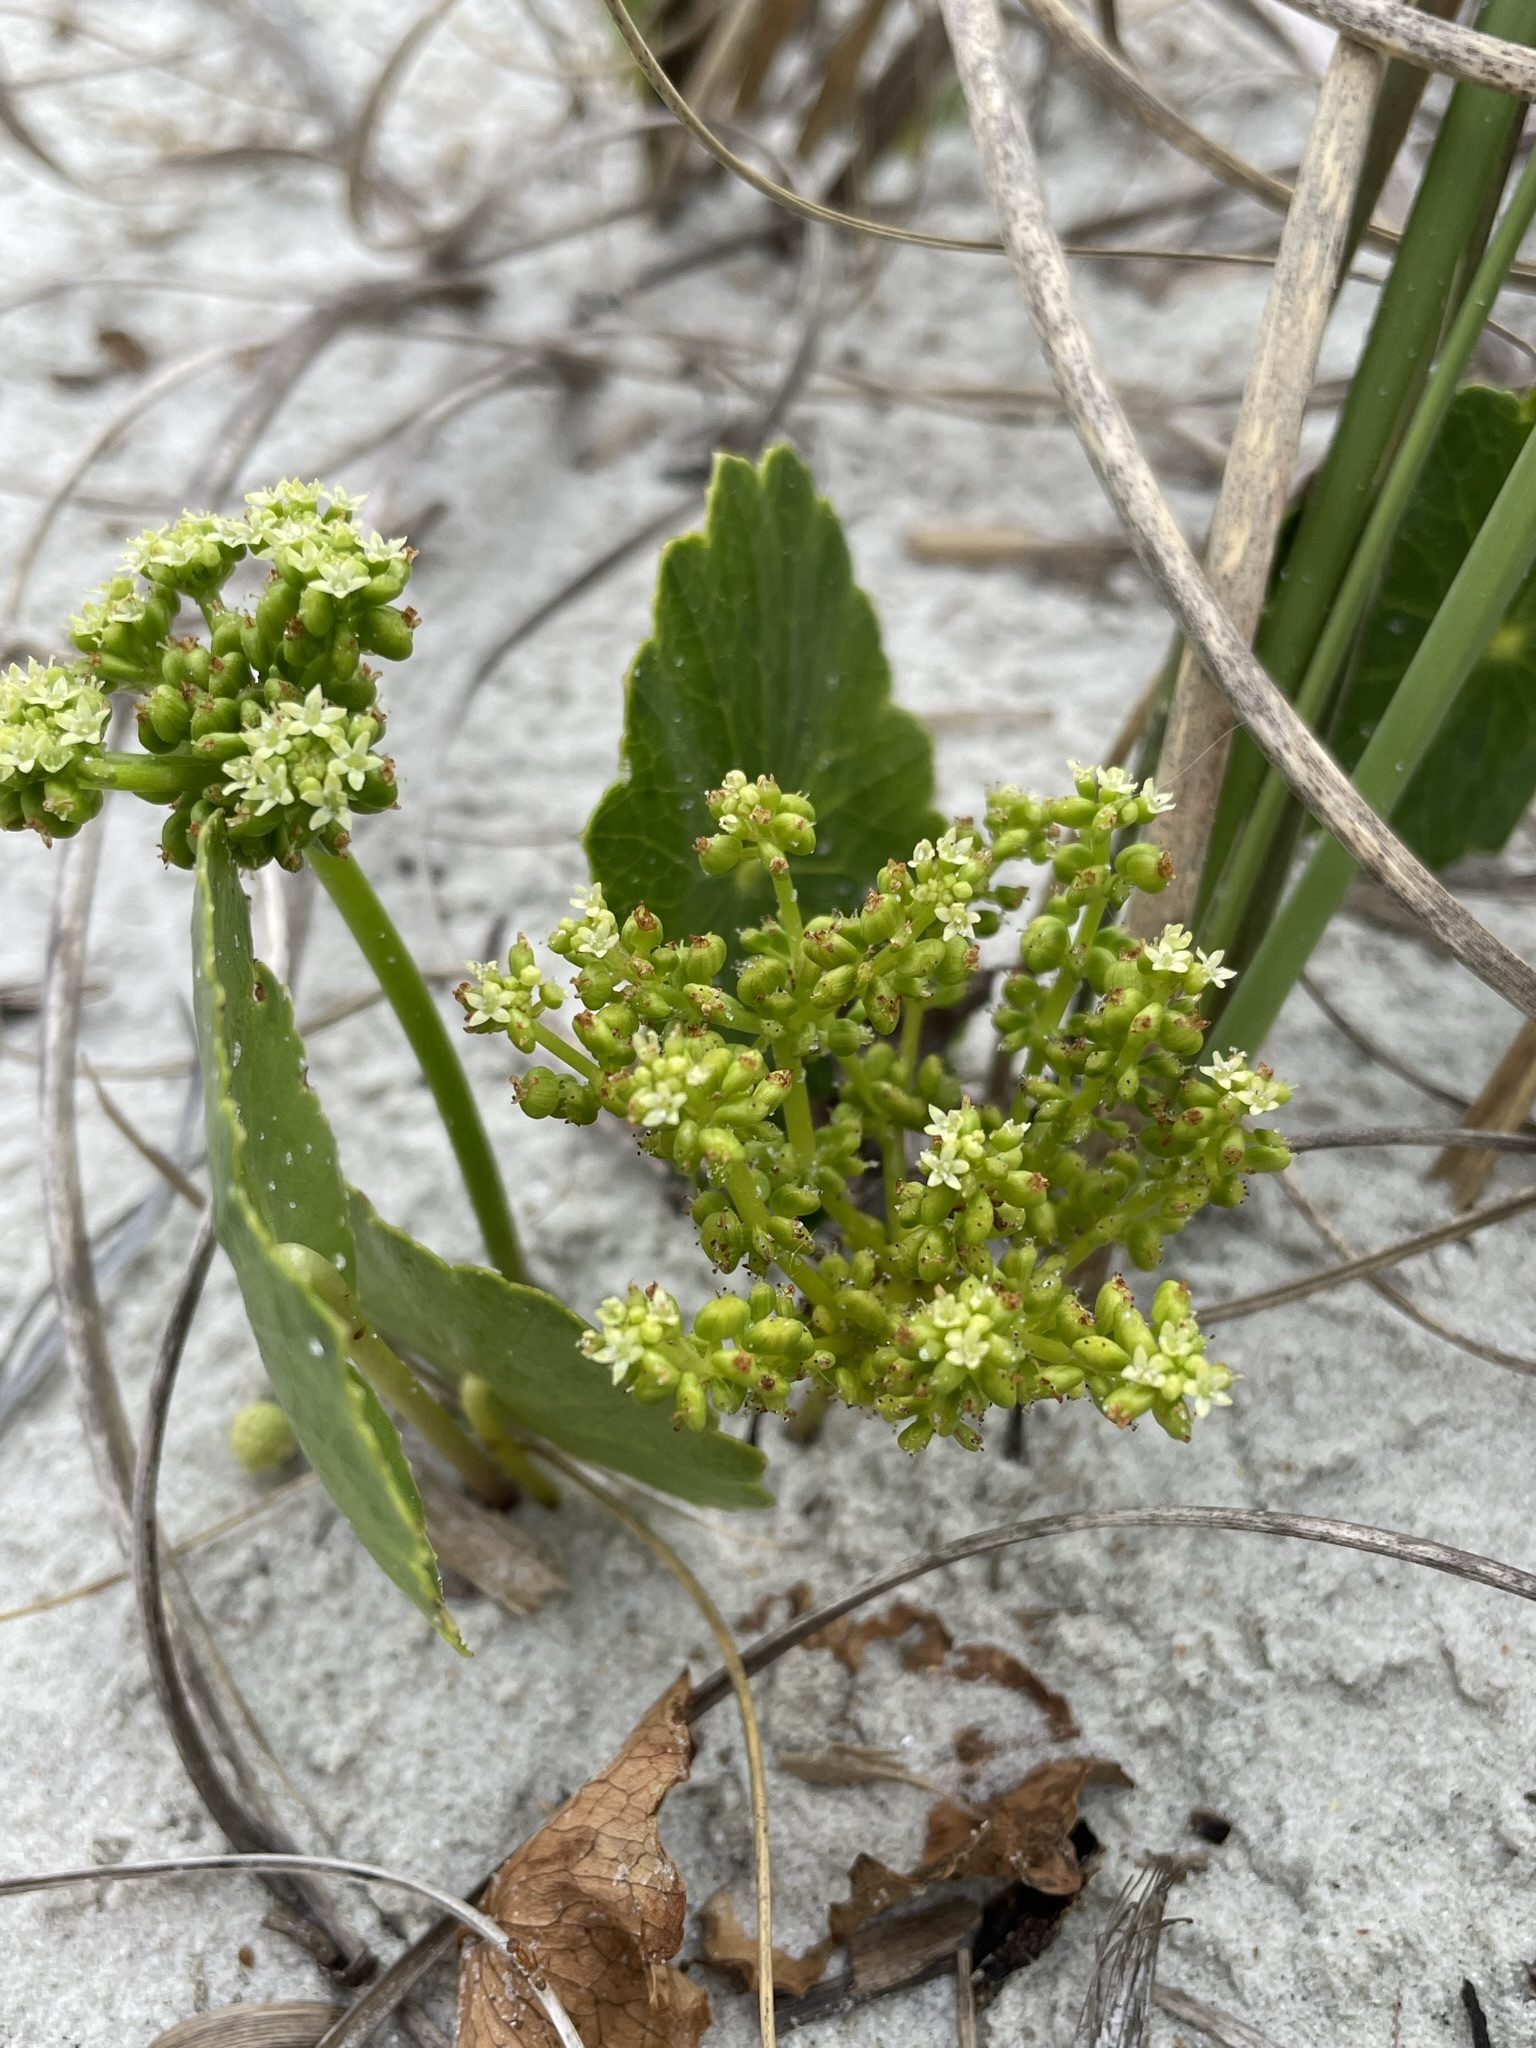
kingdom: Plantae
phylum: Tracheophyta
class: Magnoliopsida
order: Apiales
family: Araliaceae
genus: Hydrocotyle
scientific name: Hydrocotyle bonariensis
